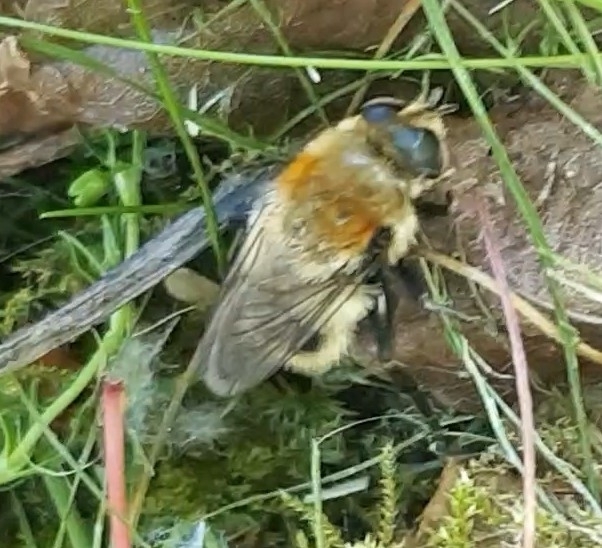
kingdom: Animalia
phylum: Arthropoda
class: Insecta
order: Diptera
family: Syrphidae
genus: Merodon
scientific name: Merodon equestris
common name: Greater bulb-fly
